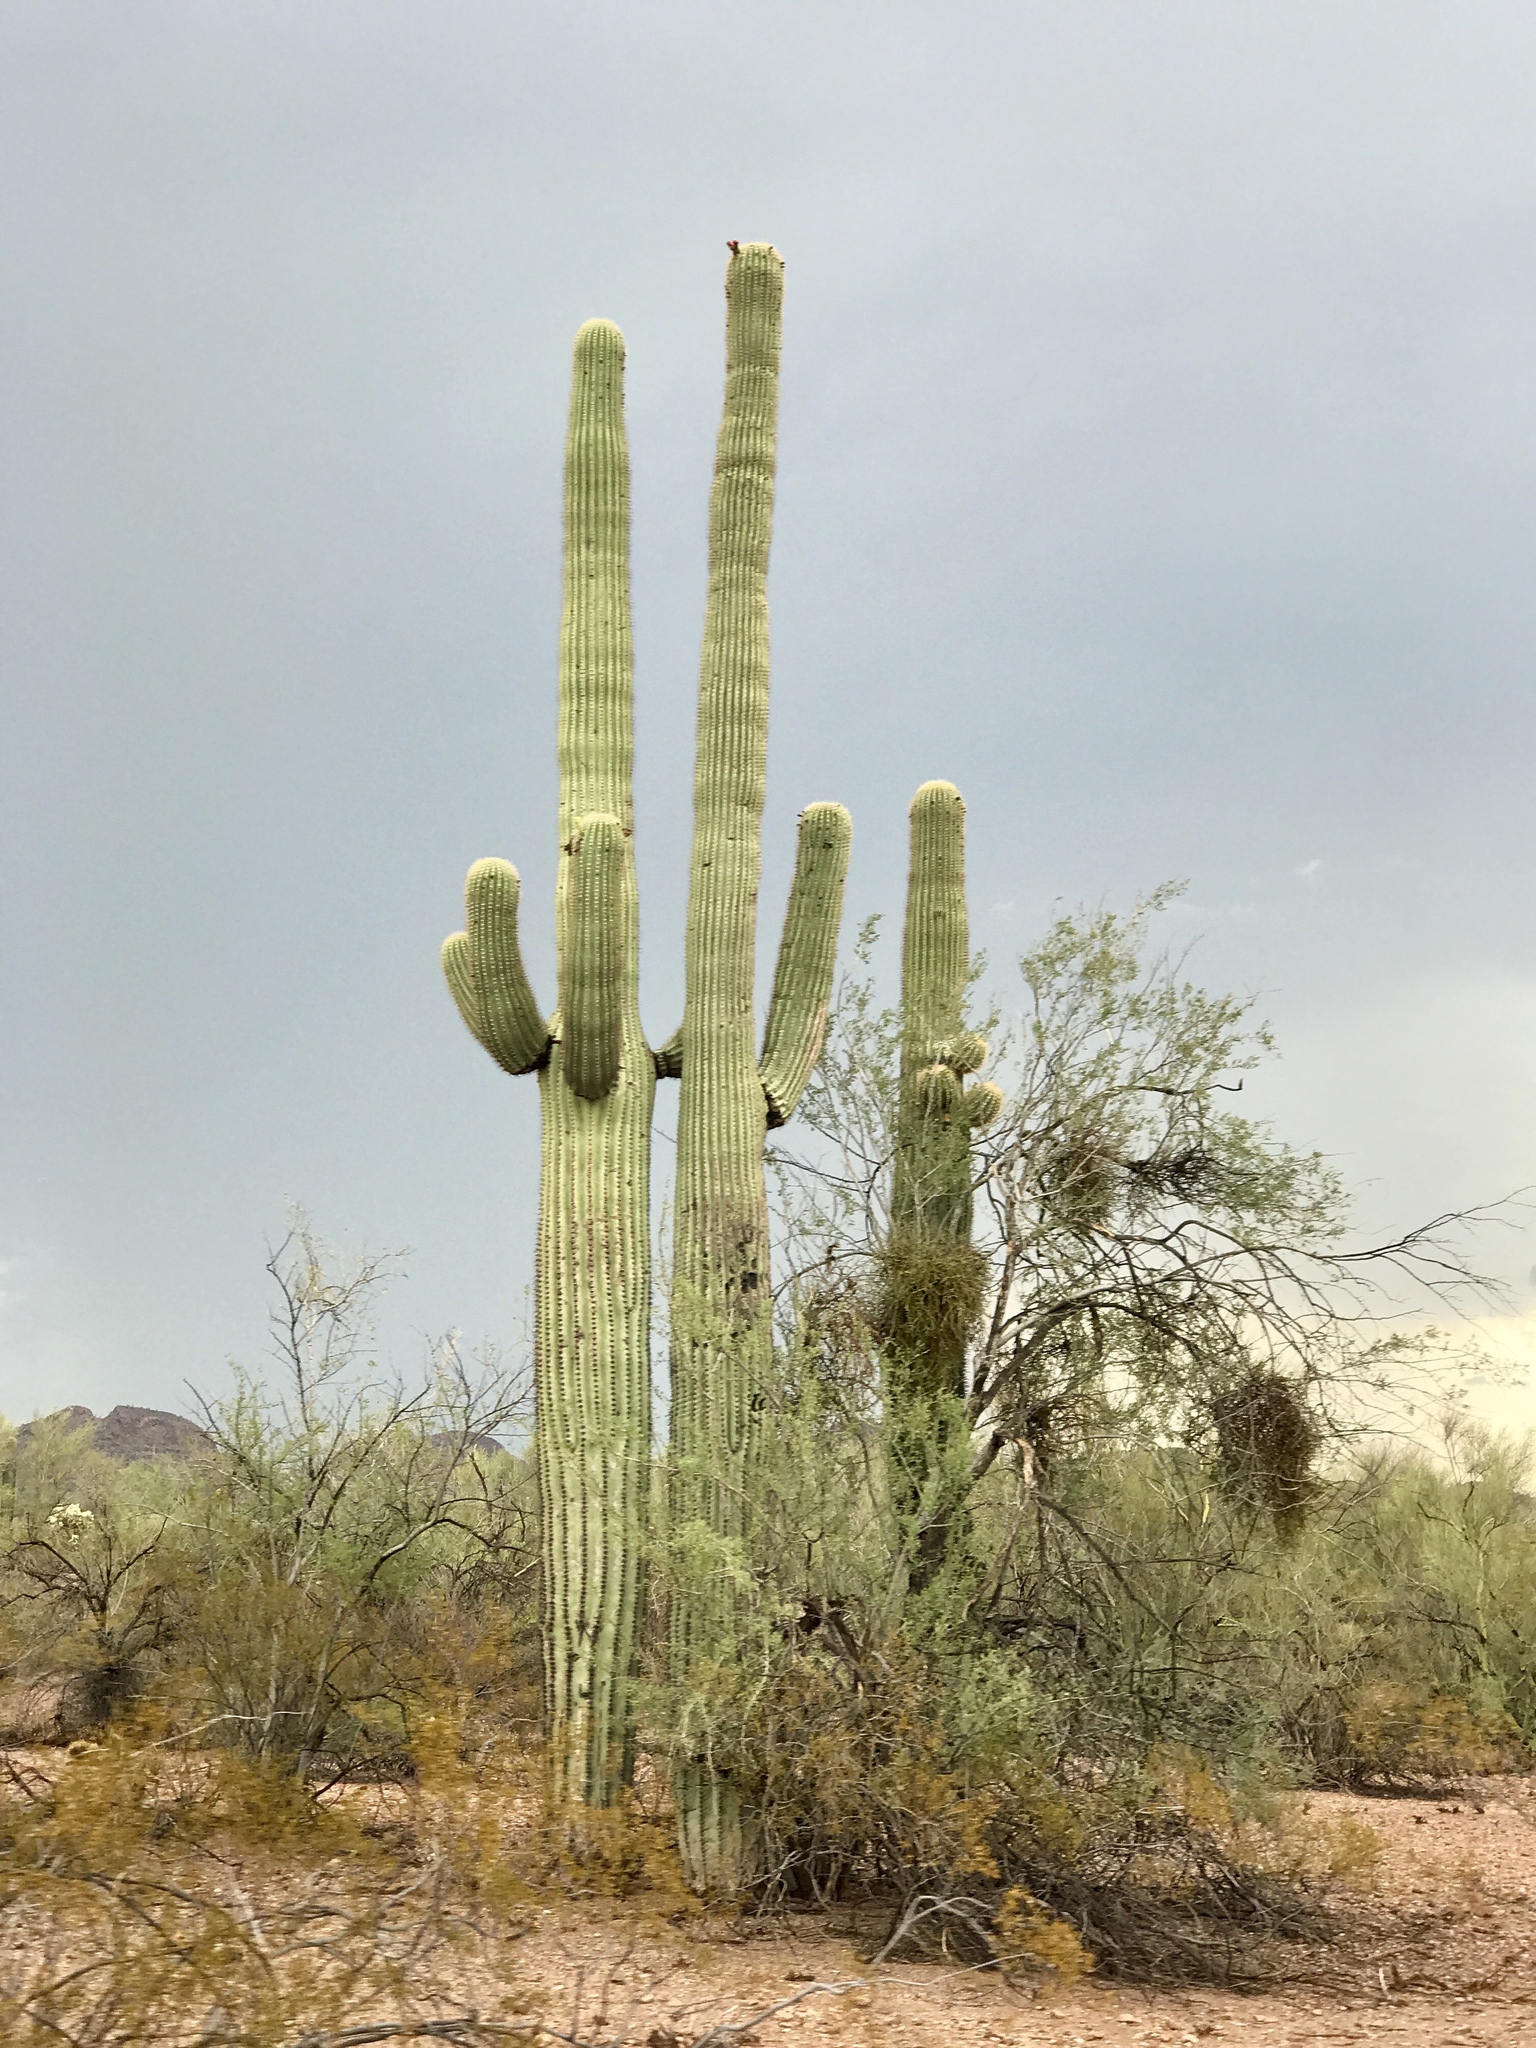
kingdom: Plantae
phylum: Tracheophyta
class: Magnoliopsida
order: Caryophyllales
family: Cactaceae
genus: Carnegiea
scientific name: Carnegiea gigantea
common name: Saguaro
